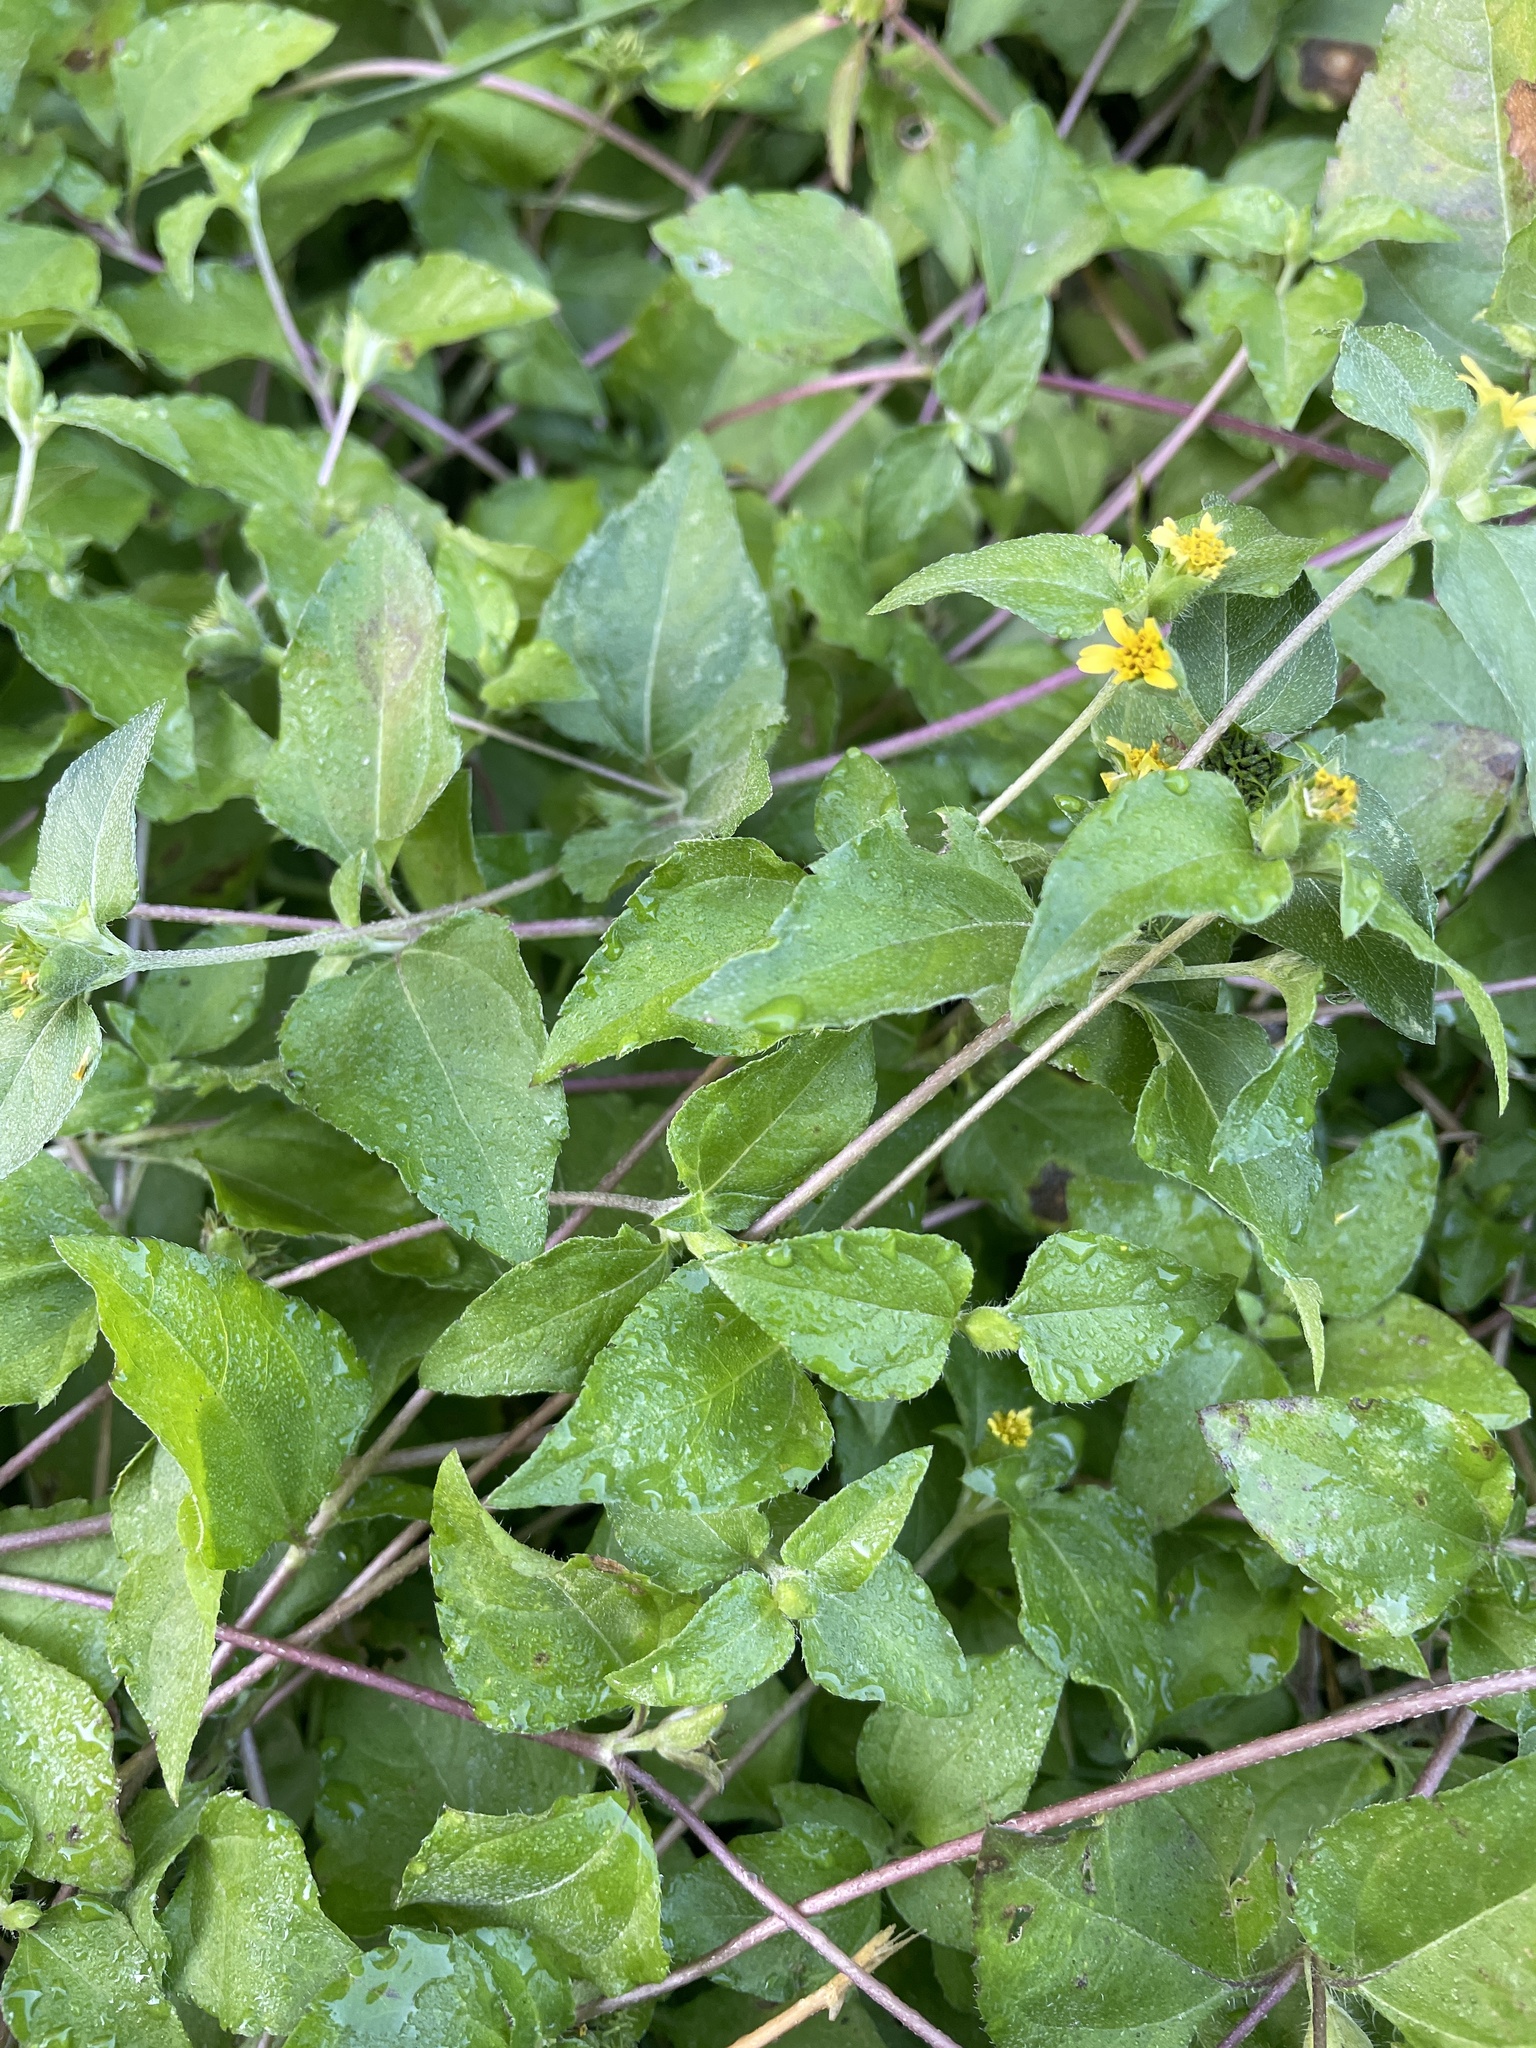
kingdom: Plantae
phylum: Tracheophyta
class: Magnoliopsida
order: Asterales
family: Asteraceae
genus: Calyptocarpus
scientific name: Calyptocarpus vialis
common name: Straggler daisy
